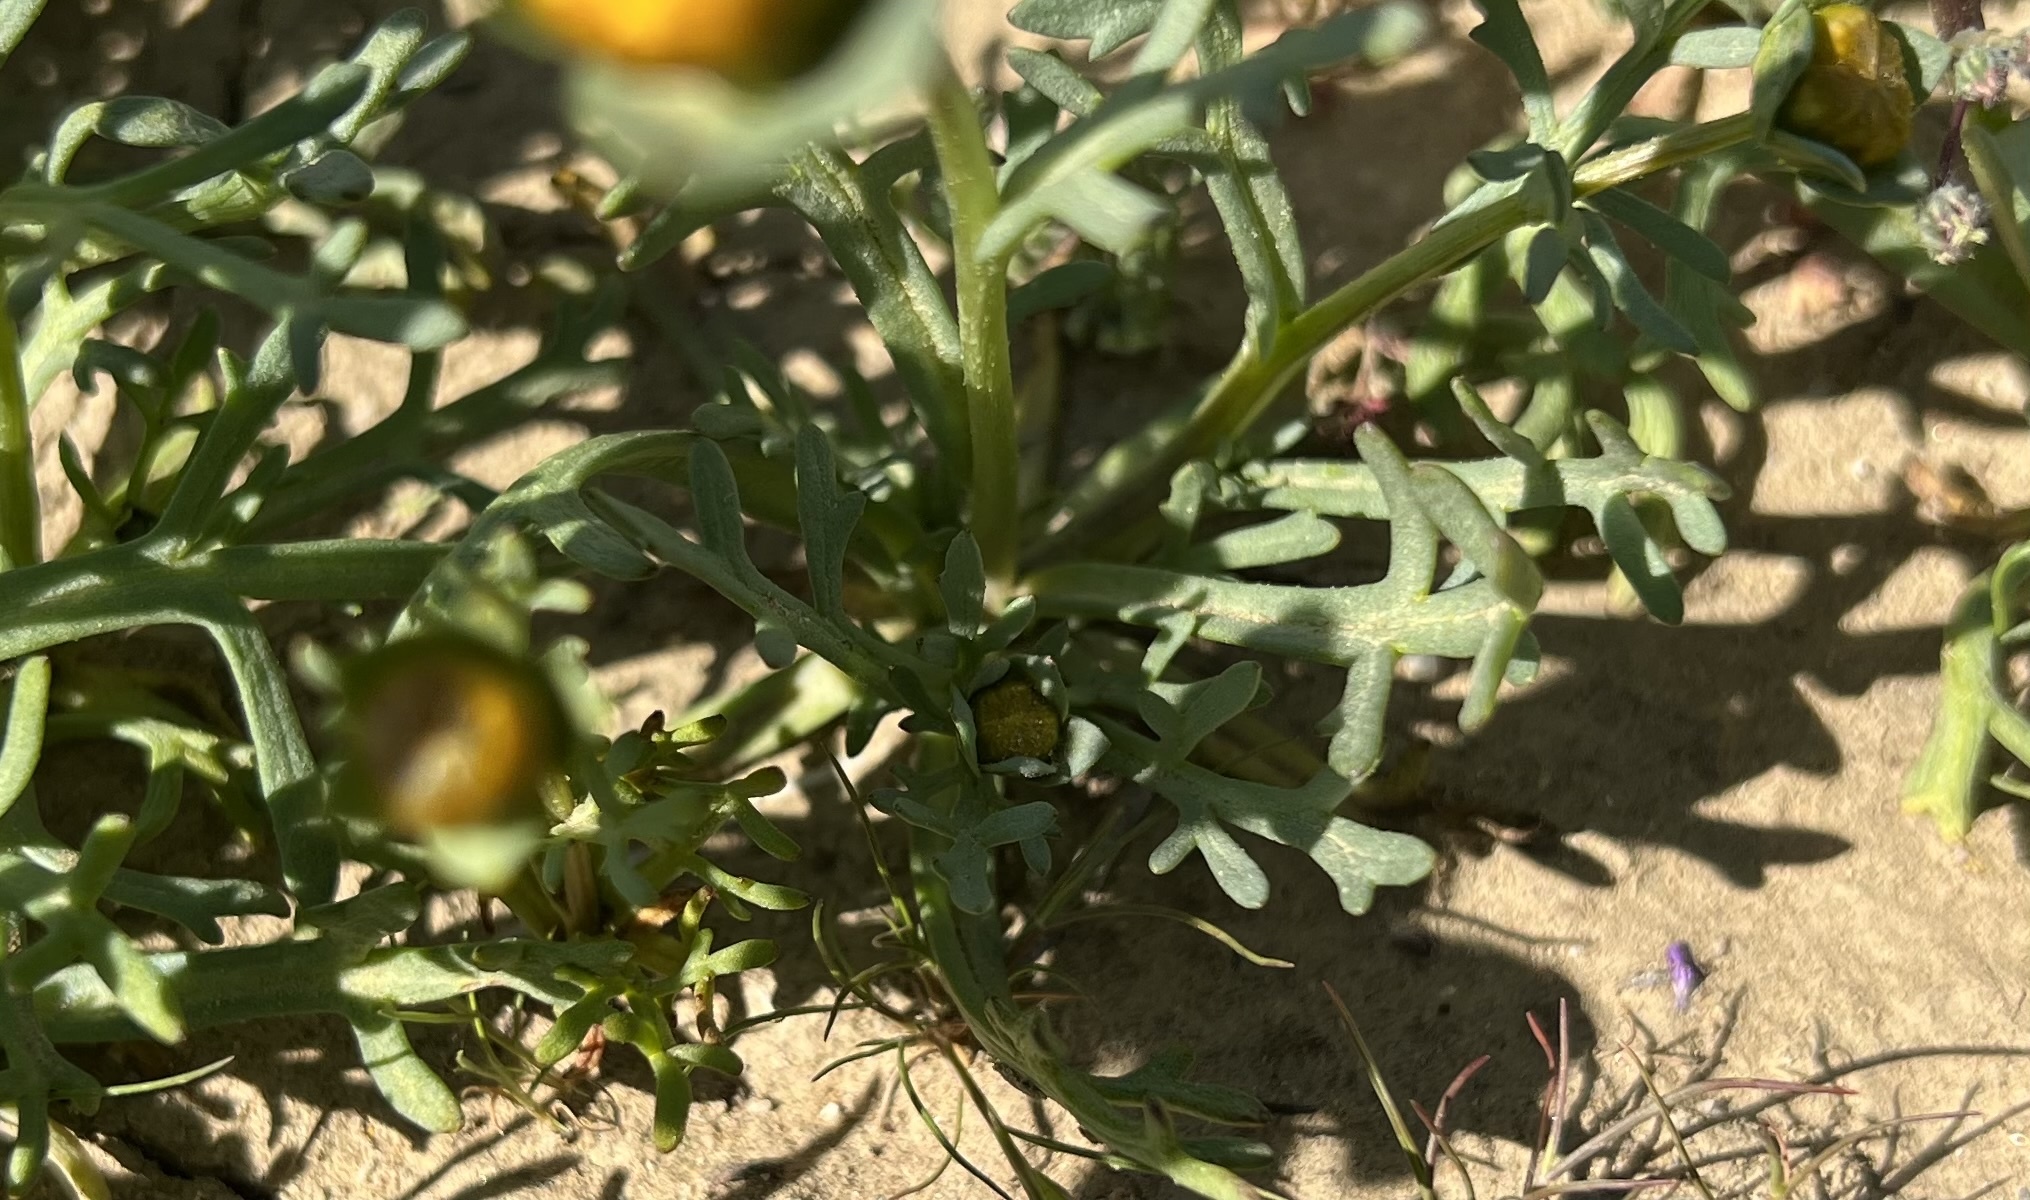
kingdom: Plantae
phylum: Tracheophyta
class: Magnoliopsida
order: Asterales
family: Asteraceae
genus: Coreopsis
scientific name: Coreopsis calliopsidea
